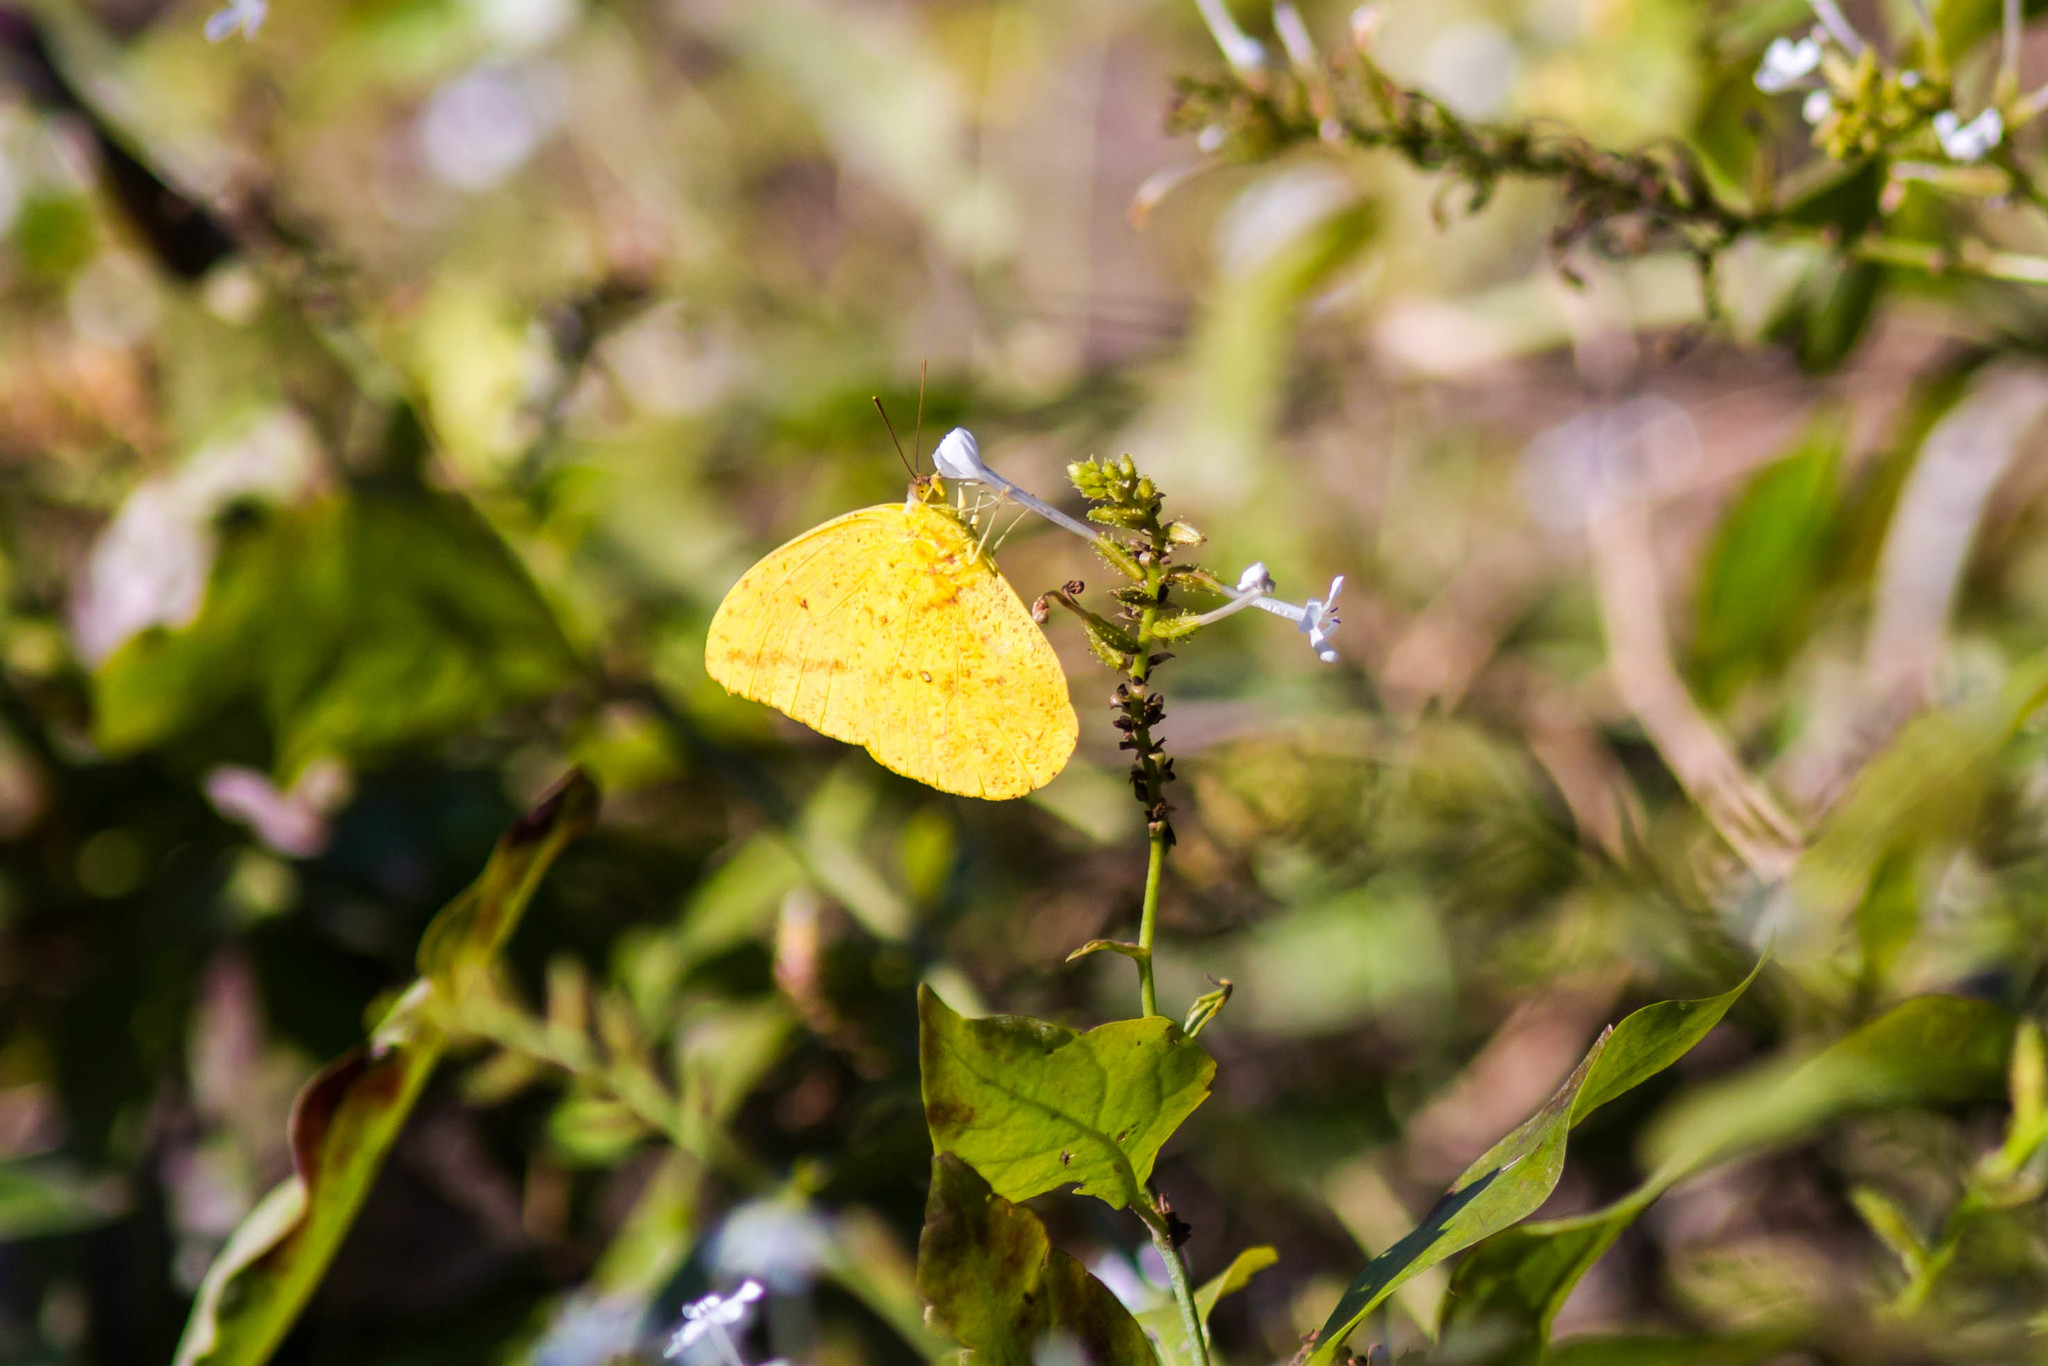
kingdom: Animalia
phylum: Arthropoda
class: Insecta
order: Lepidoptera
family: Pieridae
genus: Phoebis
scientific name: Phoebis agarithe
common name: Large orange sulphur
